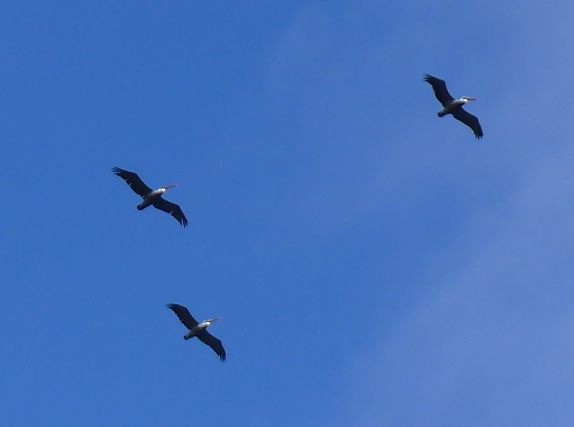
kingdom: Animalia
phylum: Chordata
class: Aves
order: Pelecaniformes
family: Pelecanidae
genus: Pelecanus
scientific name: Pelecanus occidentalis
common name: Brown pelican
